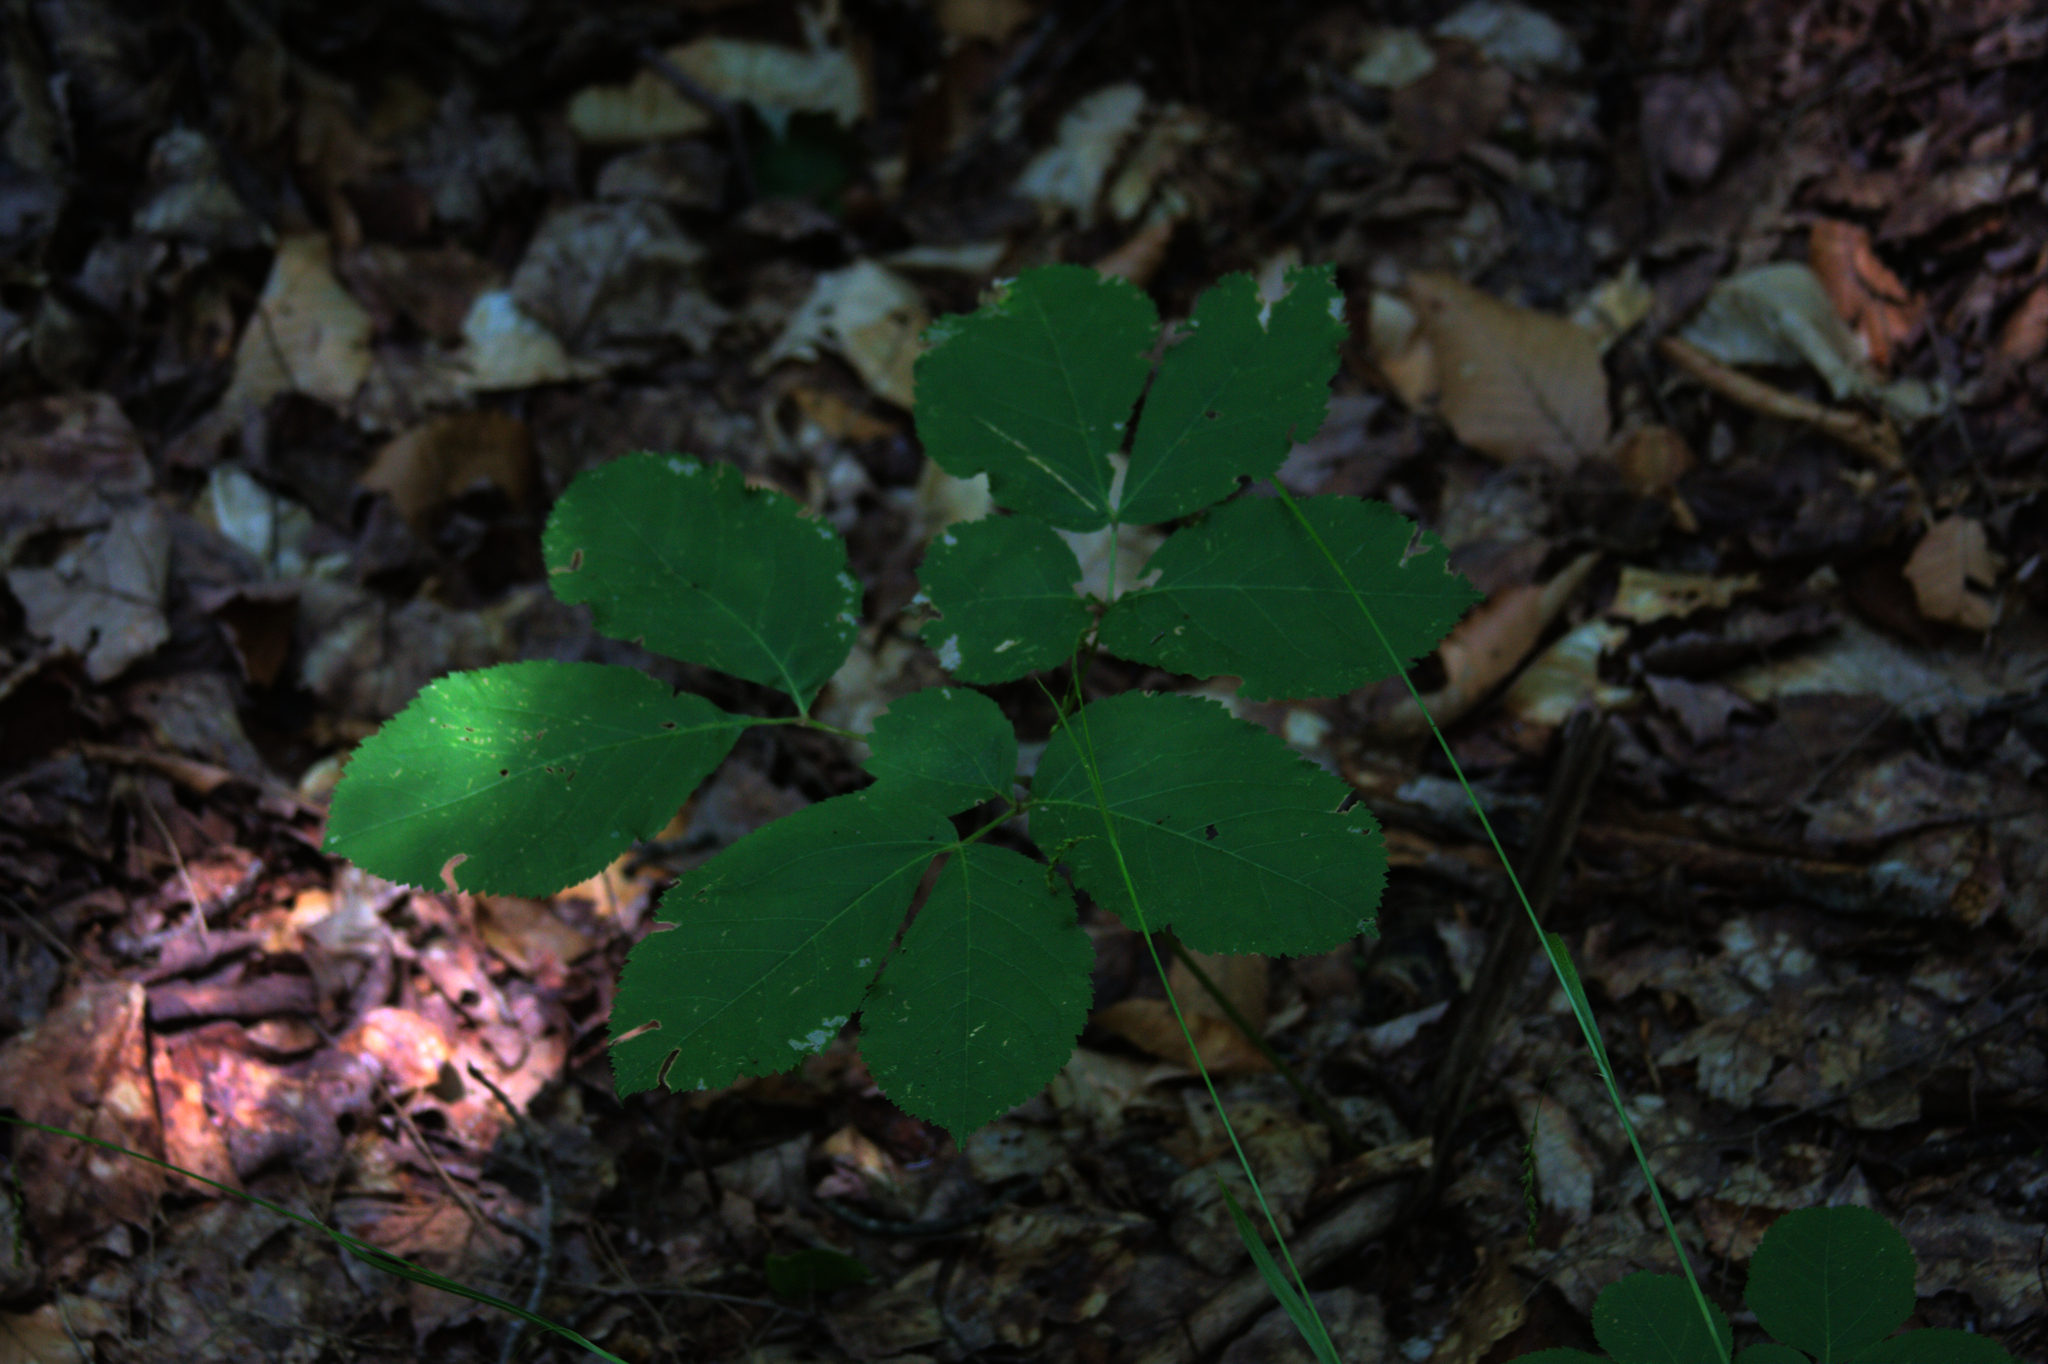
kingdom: Plantae
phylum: Tracheophyta
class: Magnoliopsida
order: Apiales
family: Araliaceae
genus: Aralia
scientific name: Aralia nudicaulis
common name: Wild sarsaparilla
